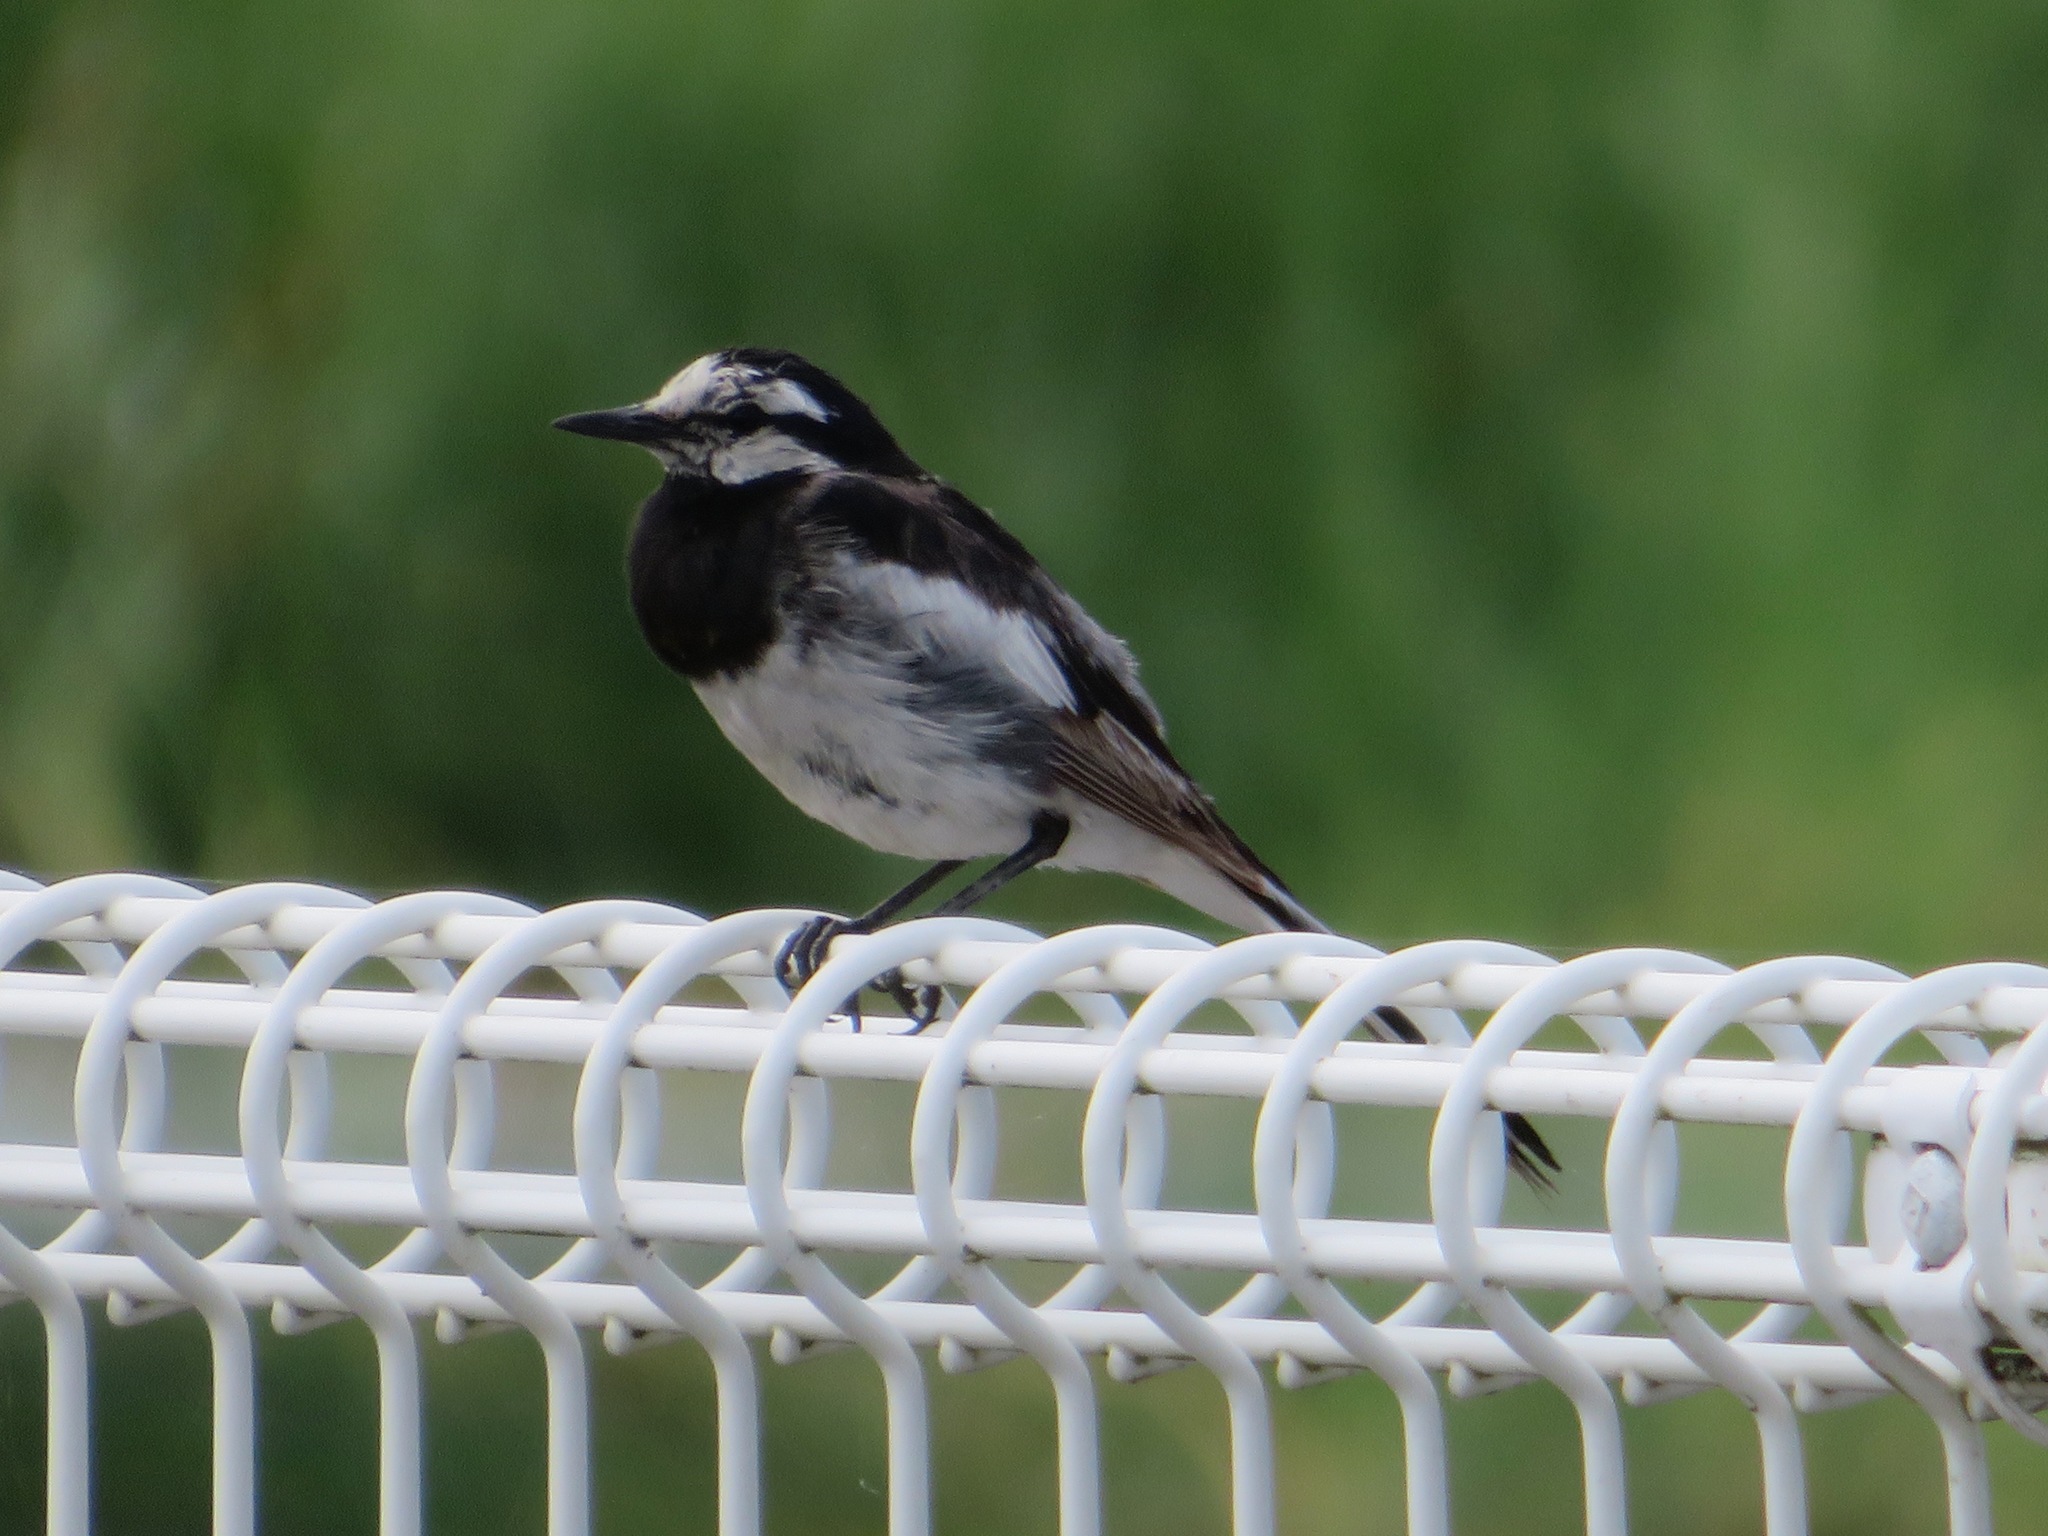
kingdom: Animalia
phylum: Chordata
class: Aves
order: Passeriformes
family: Motacillidae
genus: Motacilla
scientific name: Motacilla alba
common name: White wagtail
